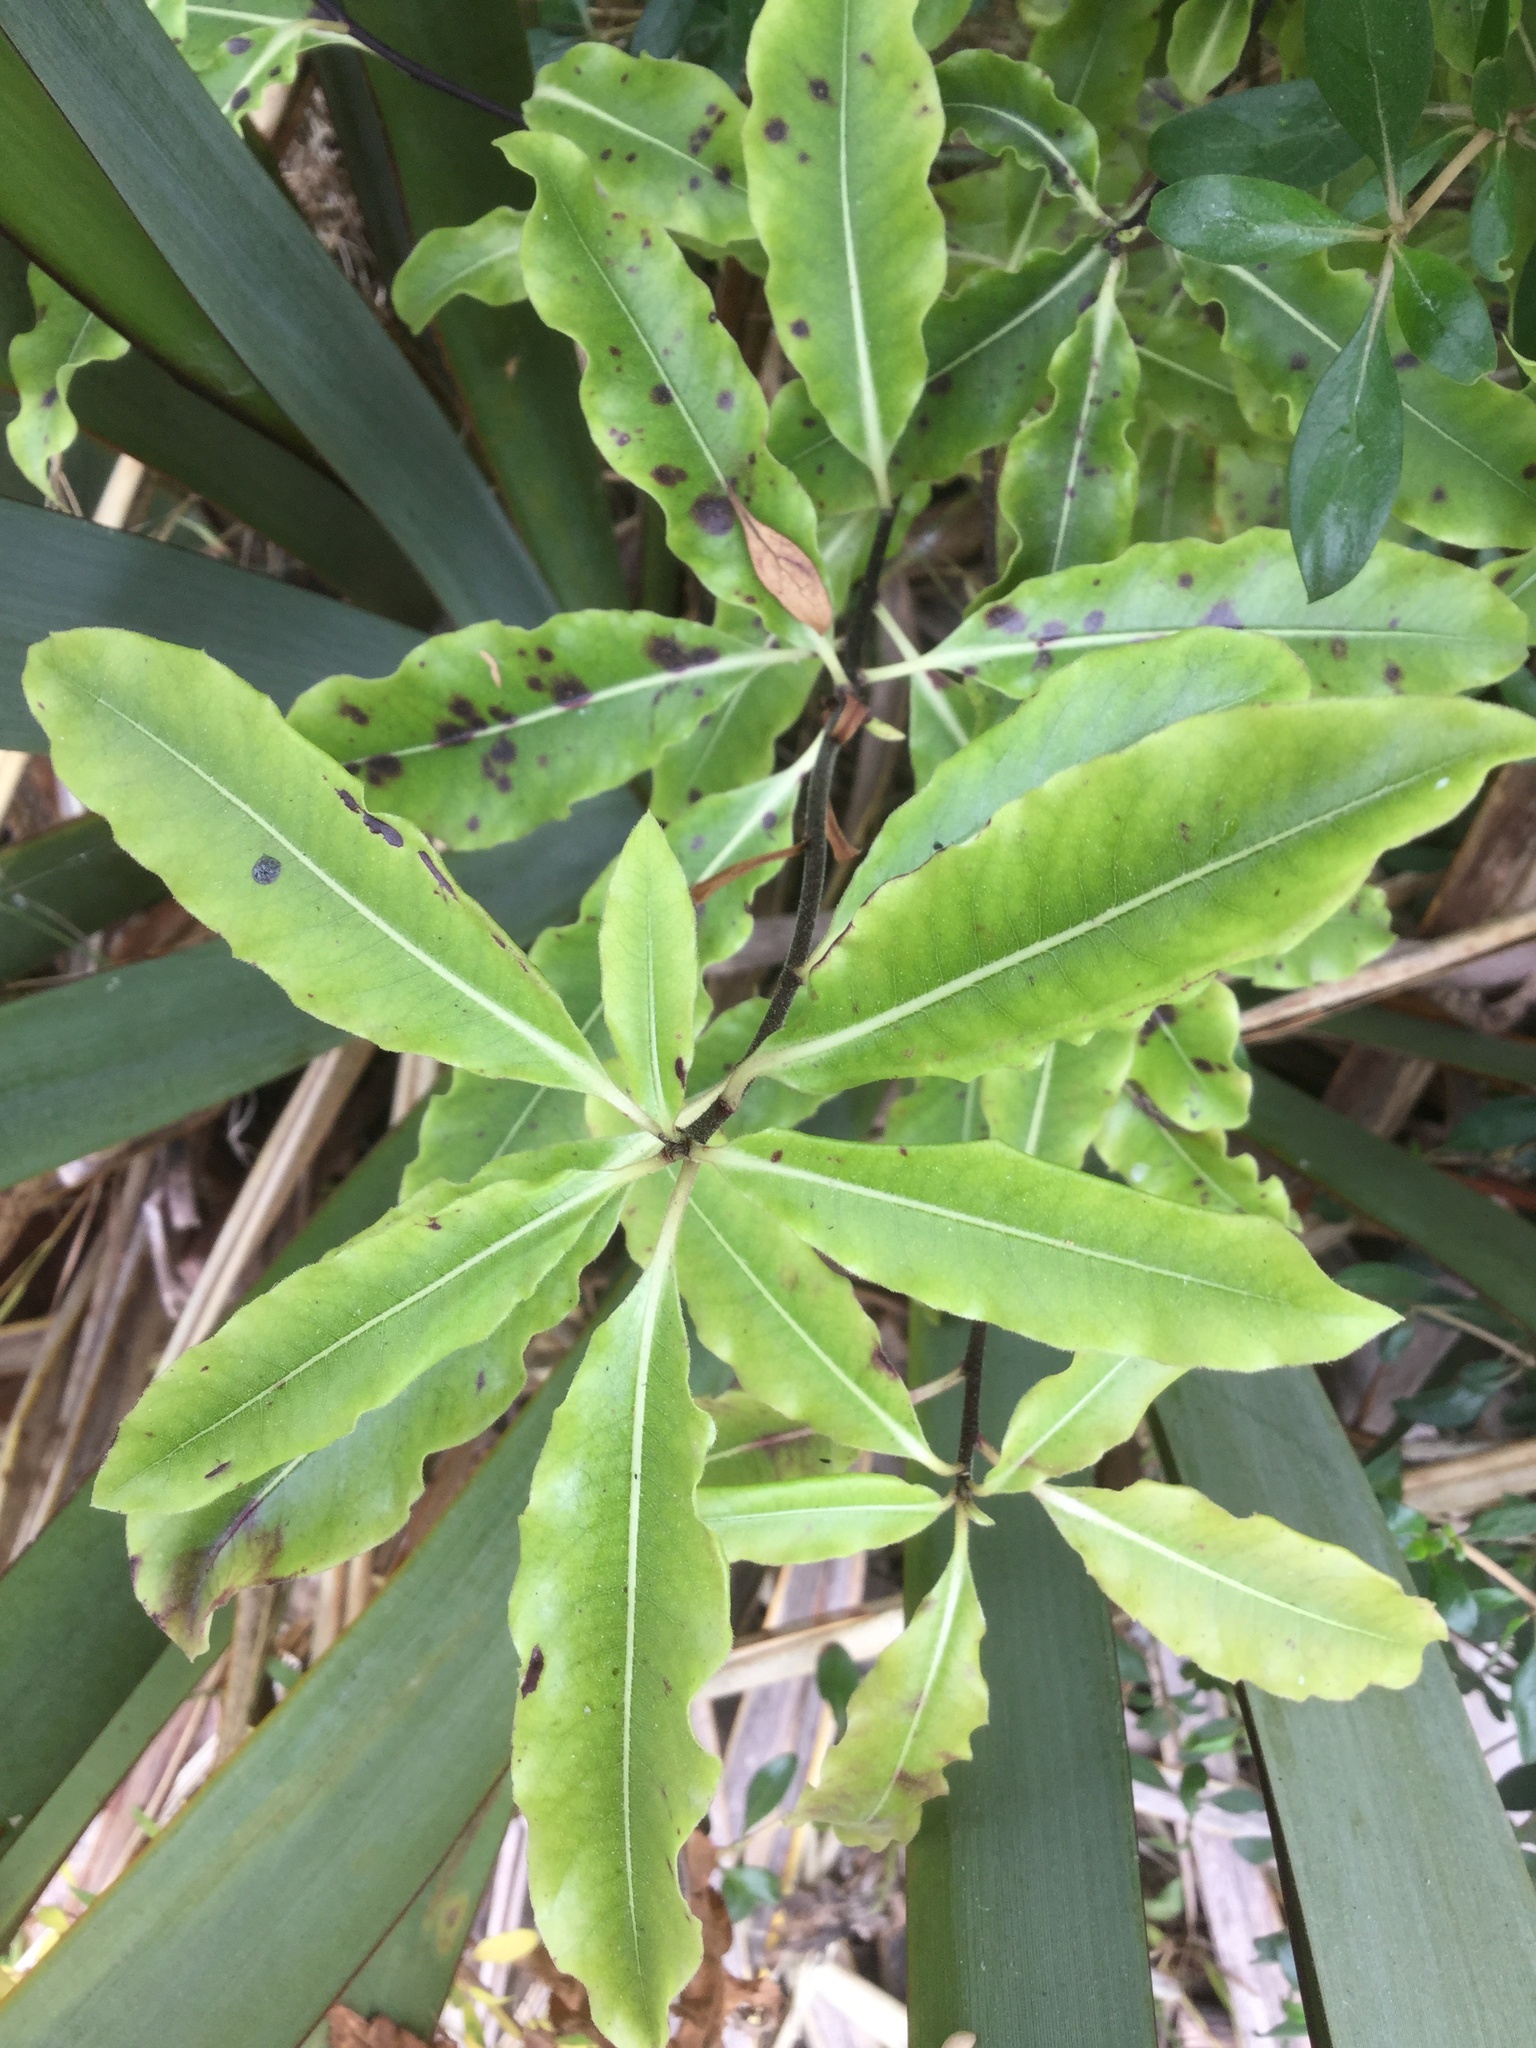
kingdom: Plantae
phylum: Tracheophyta
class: Magnoliopsida
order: Apiales
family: Pittosporaceae
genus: Pittosporum
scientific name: Pittosporum eugenioides
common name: Lemonwood
